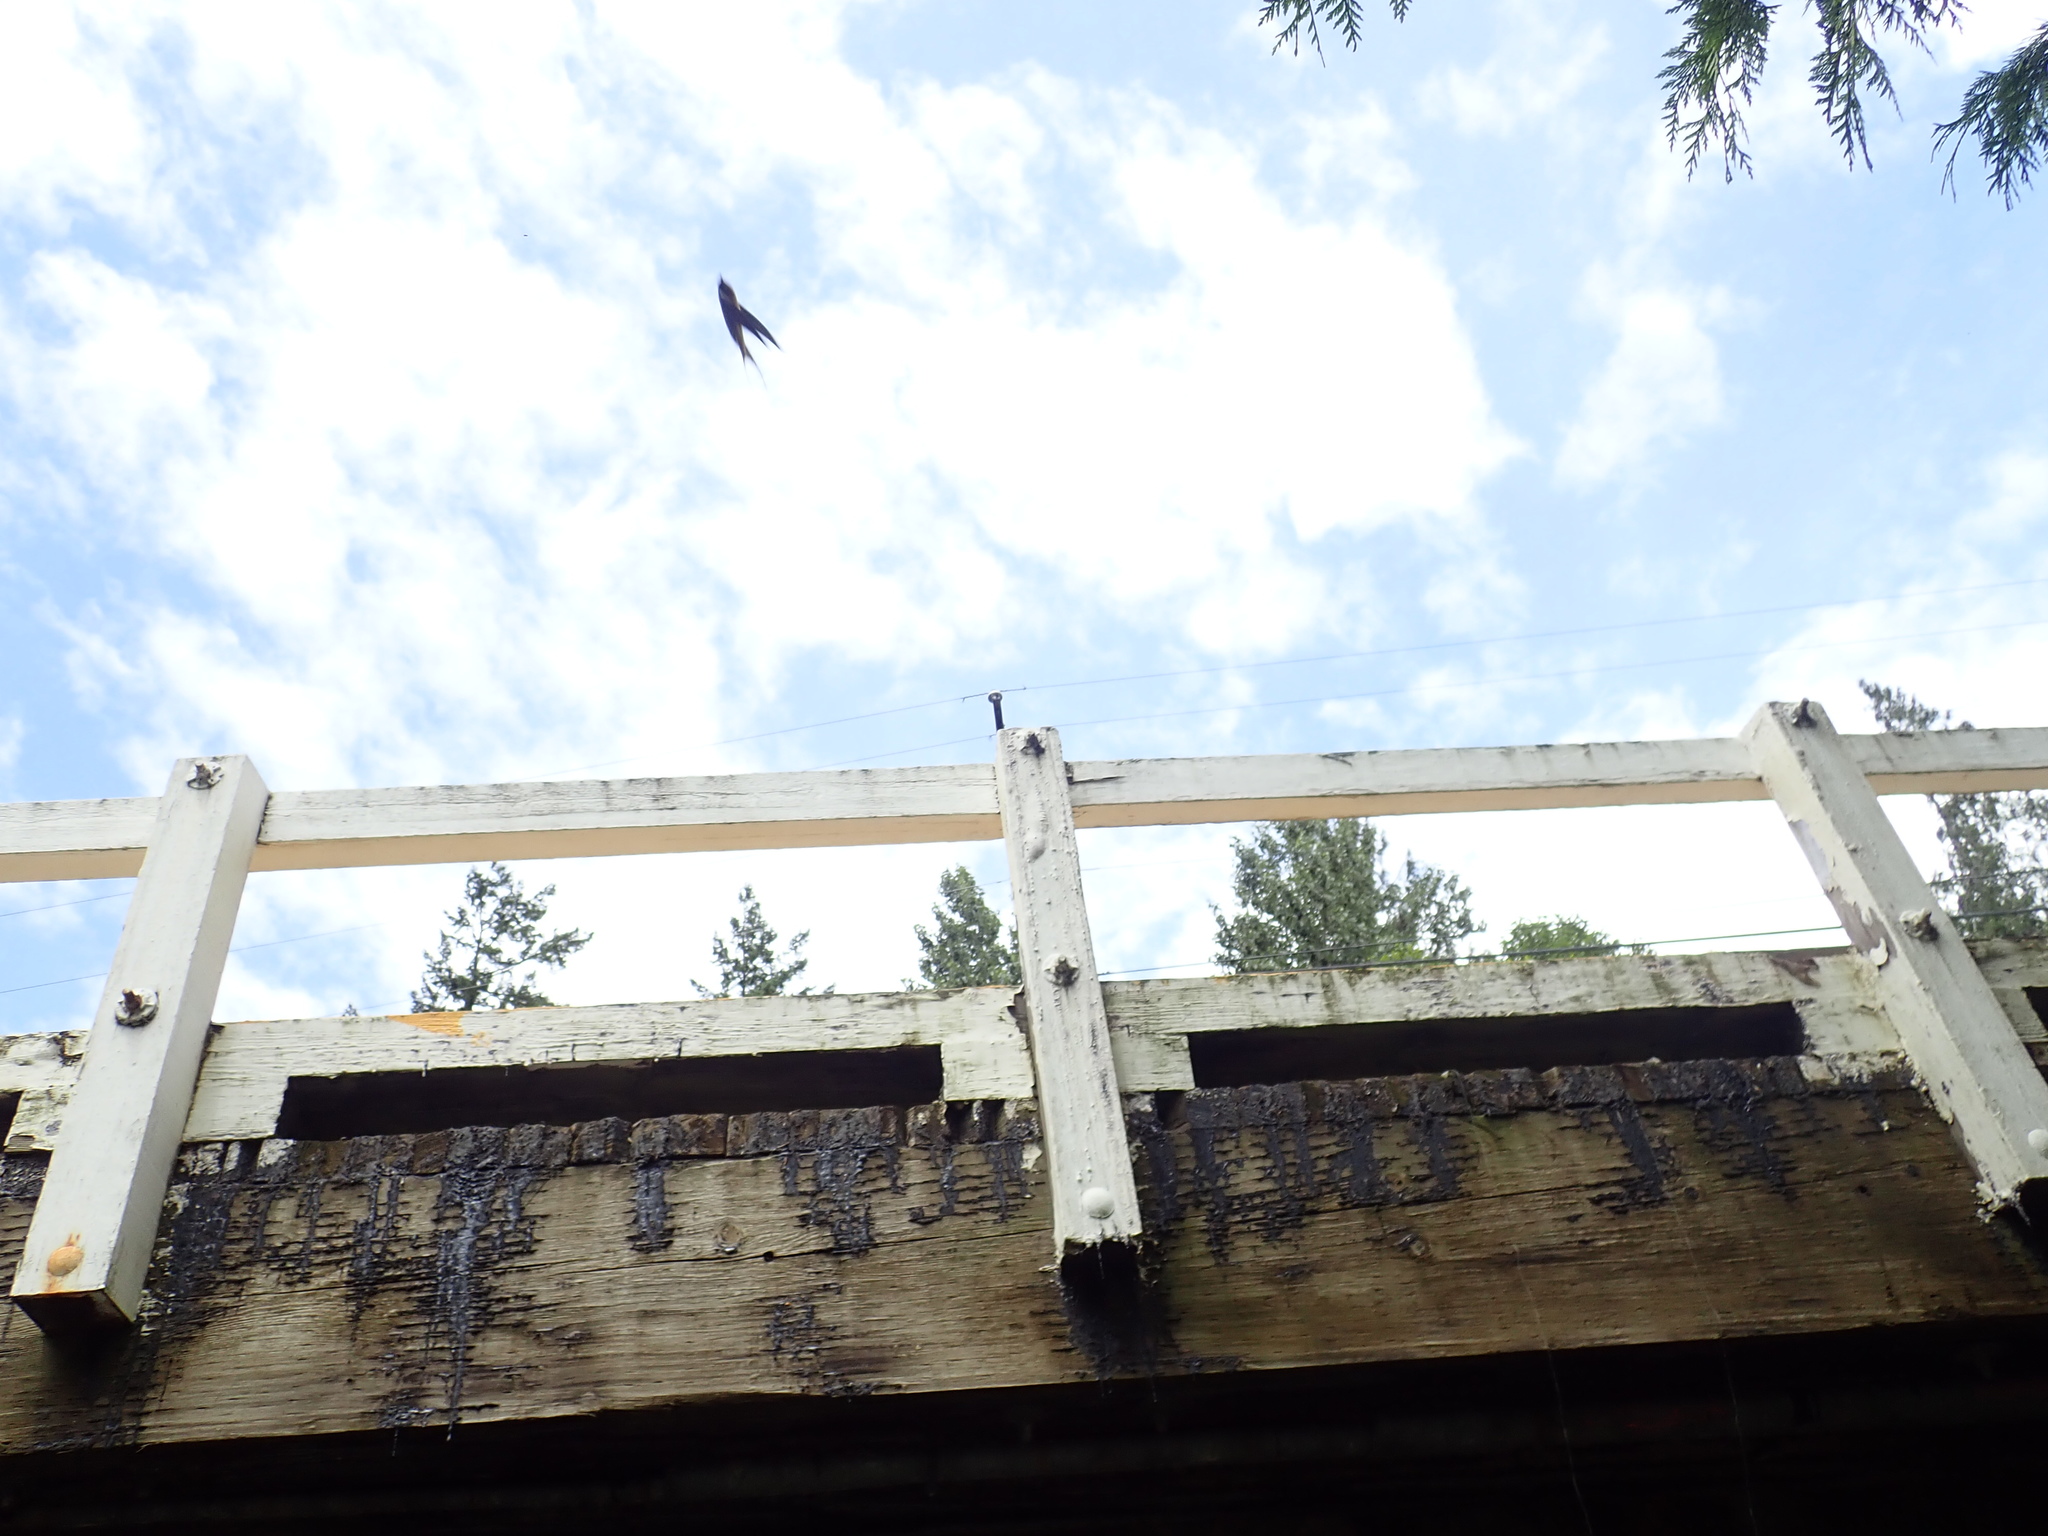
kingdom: Animalia
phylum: Chordata
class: Aves
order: Passeriformes
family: Hirundinidae
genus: Hirundo
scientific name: Hirundo rustica
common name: Barn swallow
